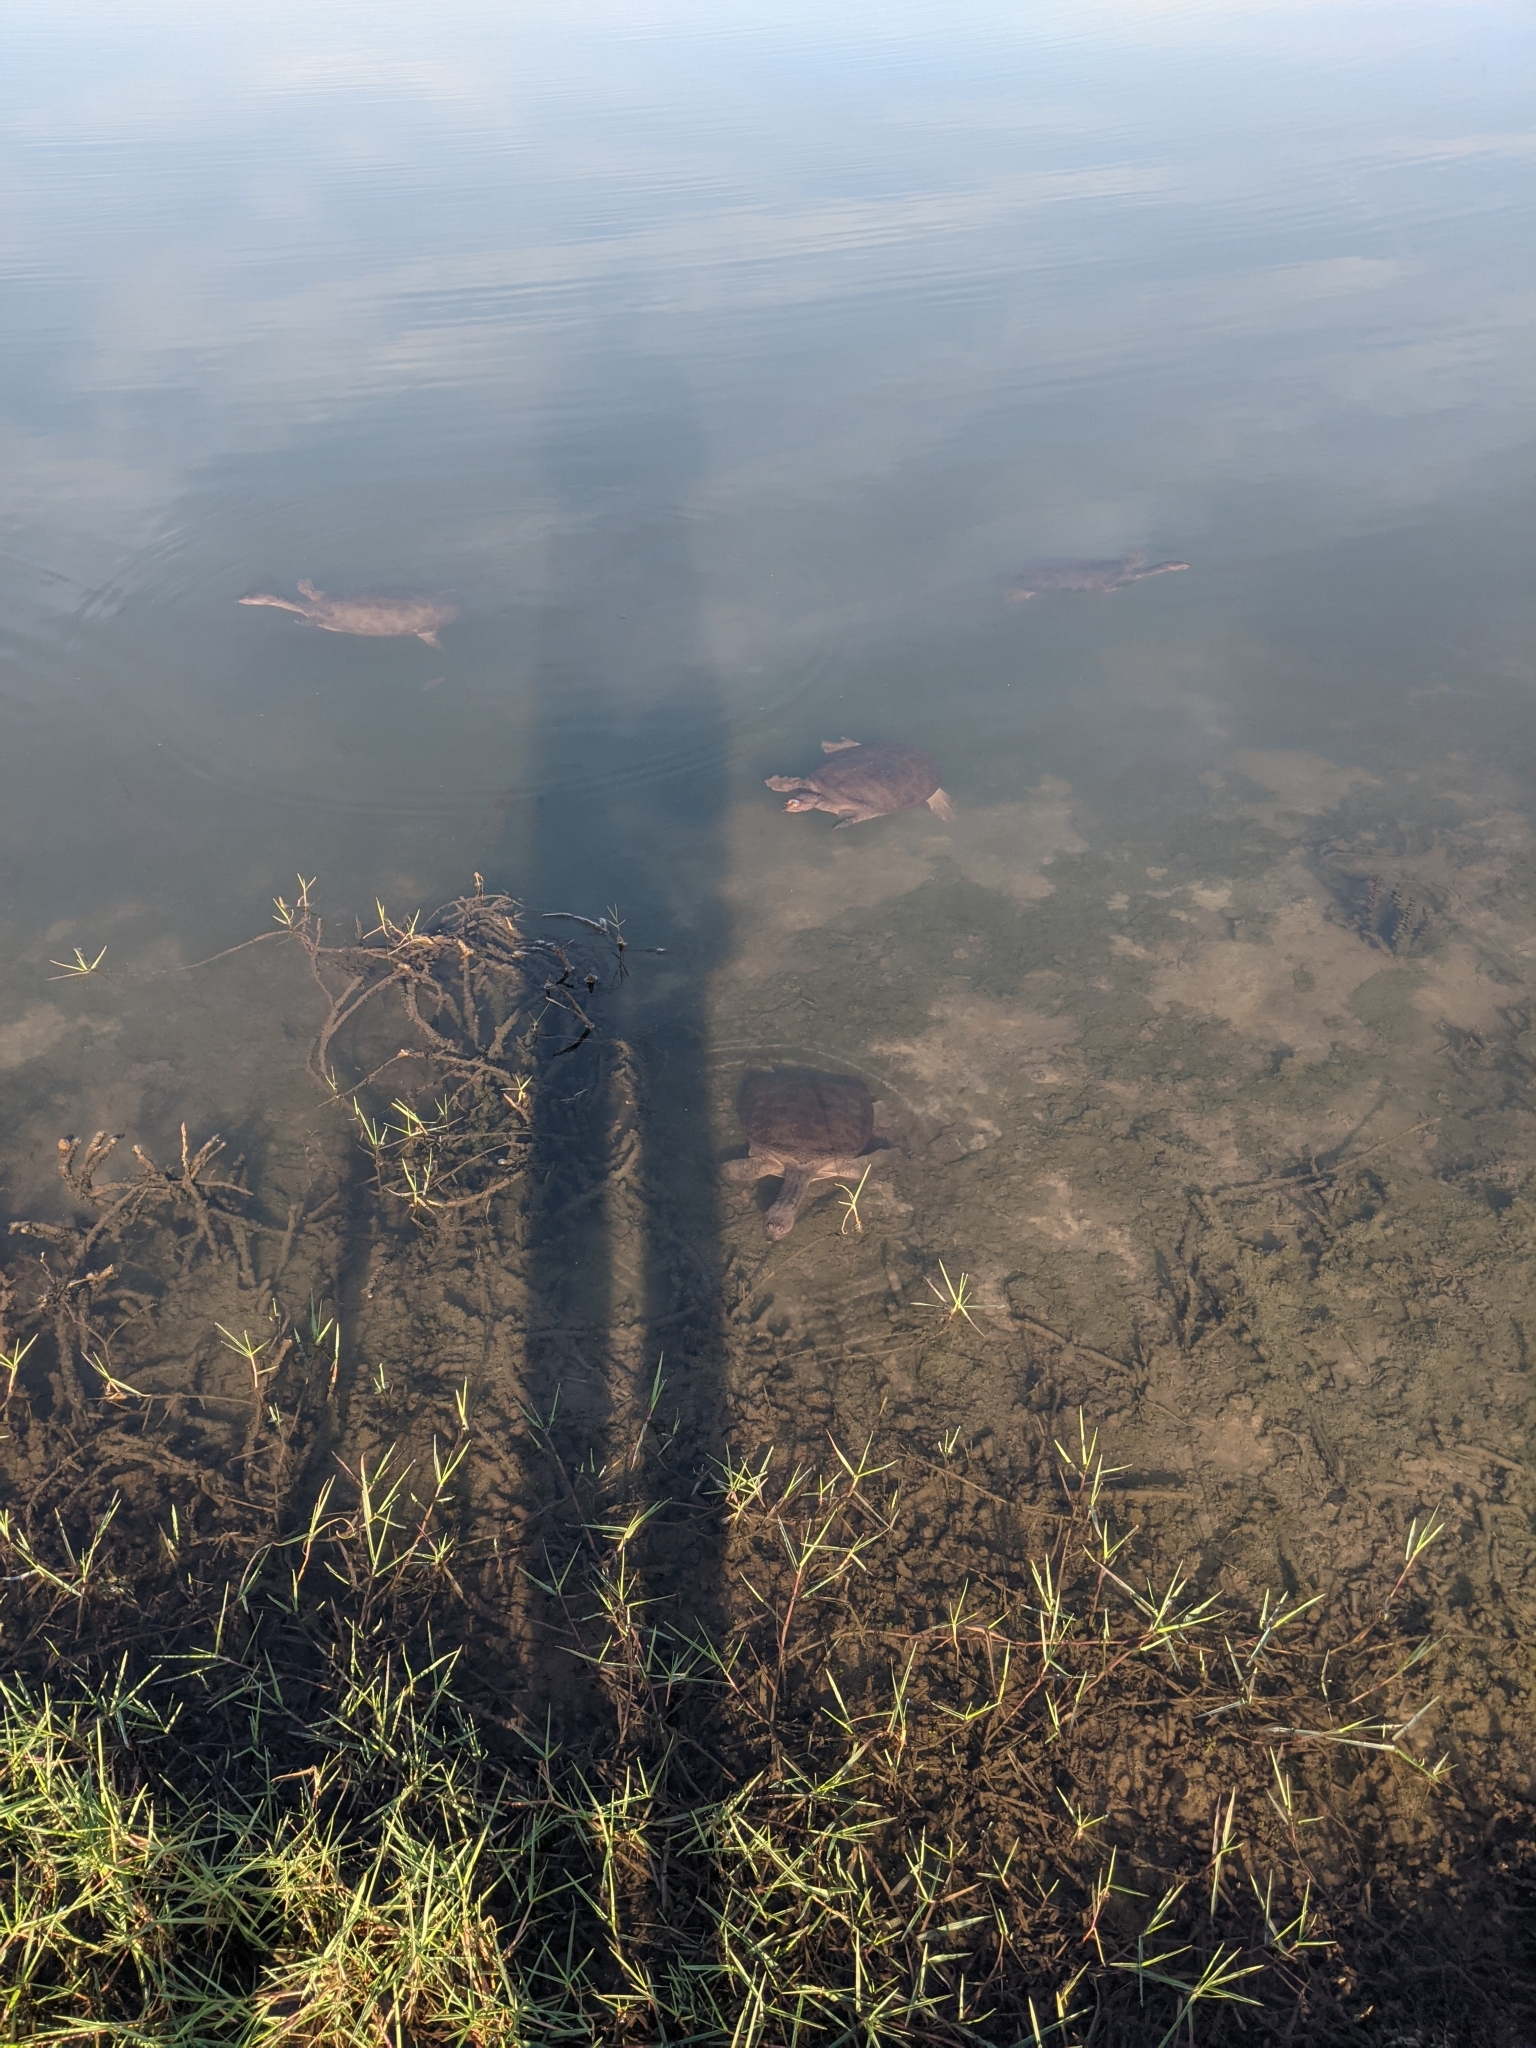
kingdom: Animalia
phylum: Chordata
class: Testudines
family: Trionychidae
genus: Apalone
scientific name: Apalone ferox
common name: Florida softshell turtle
